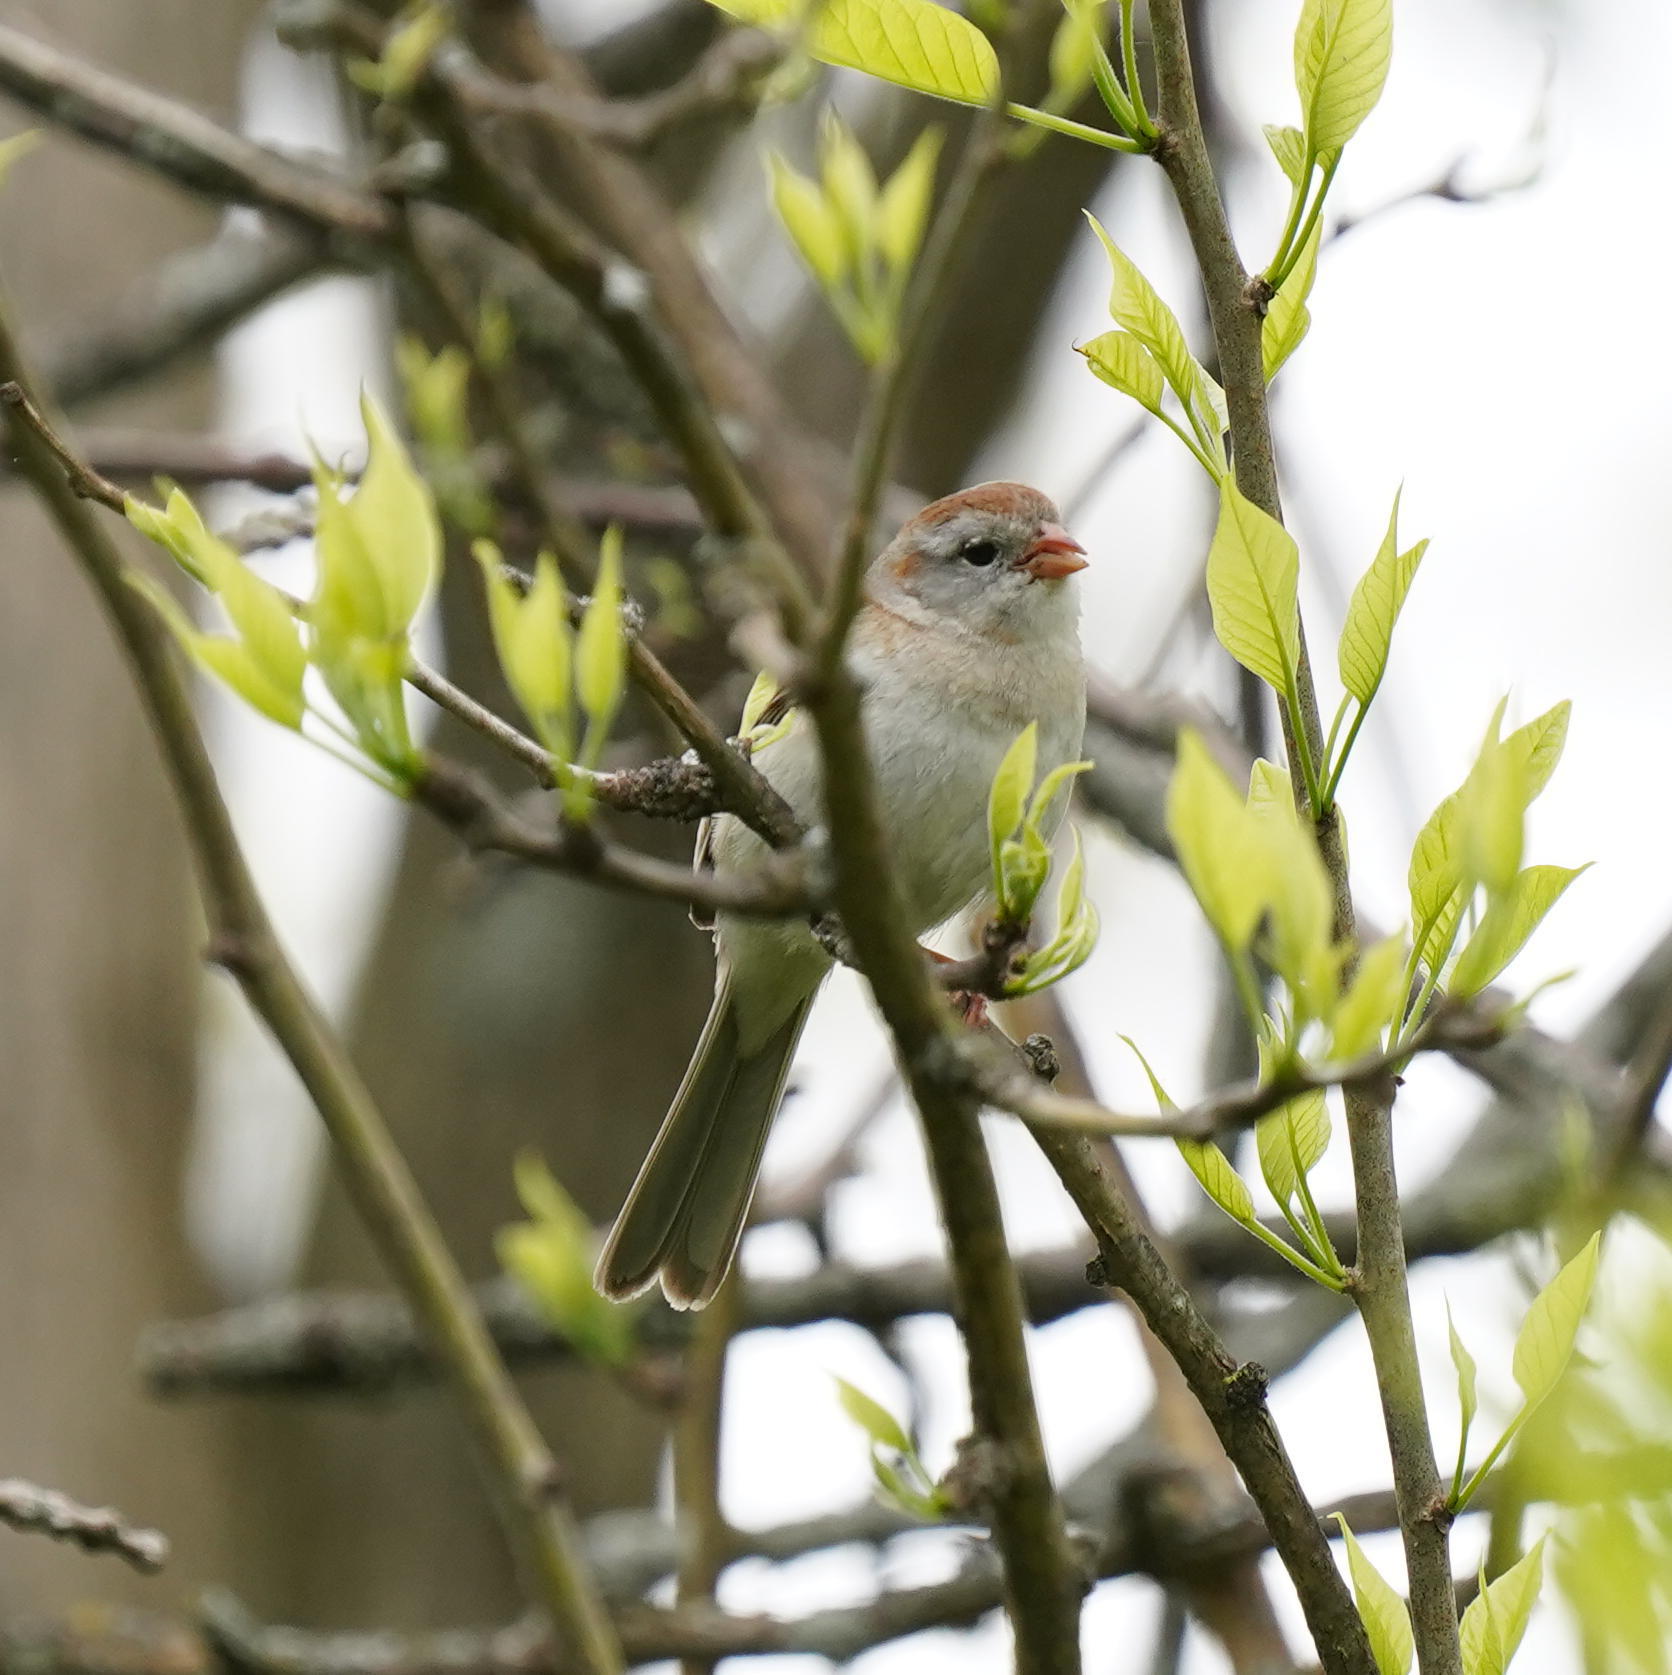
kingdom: Animalia
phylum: Chordata
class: Aves
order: Passeriformes
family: Passerellidae
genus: Spizella
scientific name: Spizella pusilla
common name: Field sparrow
